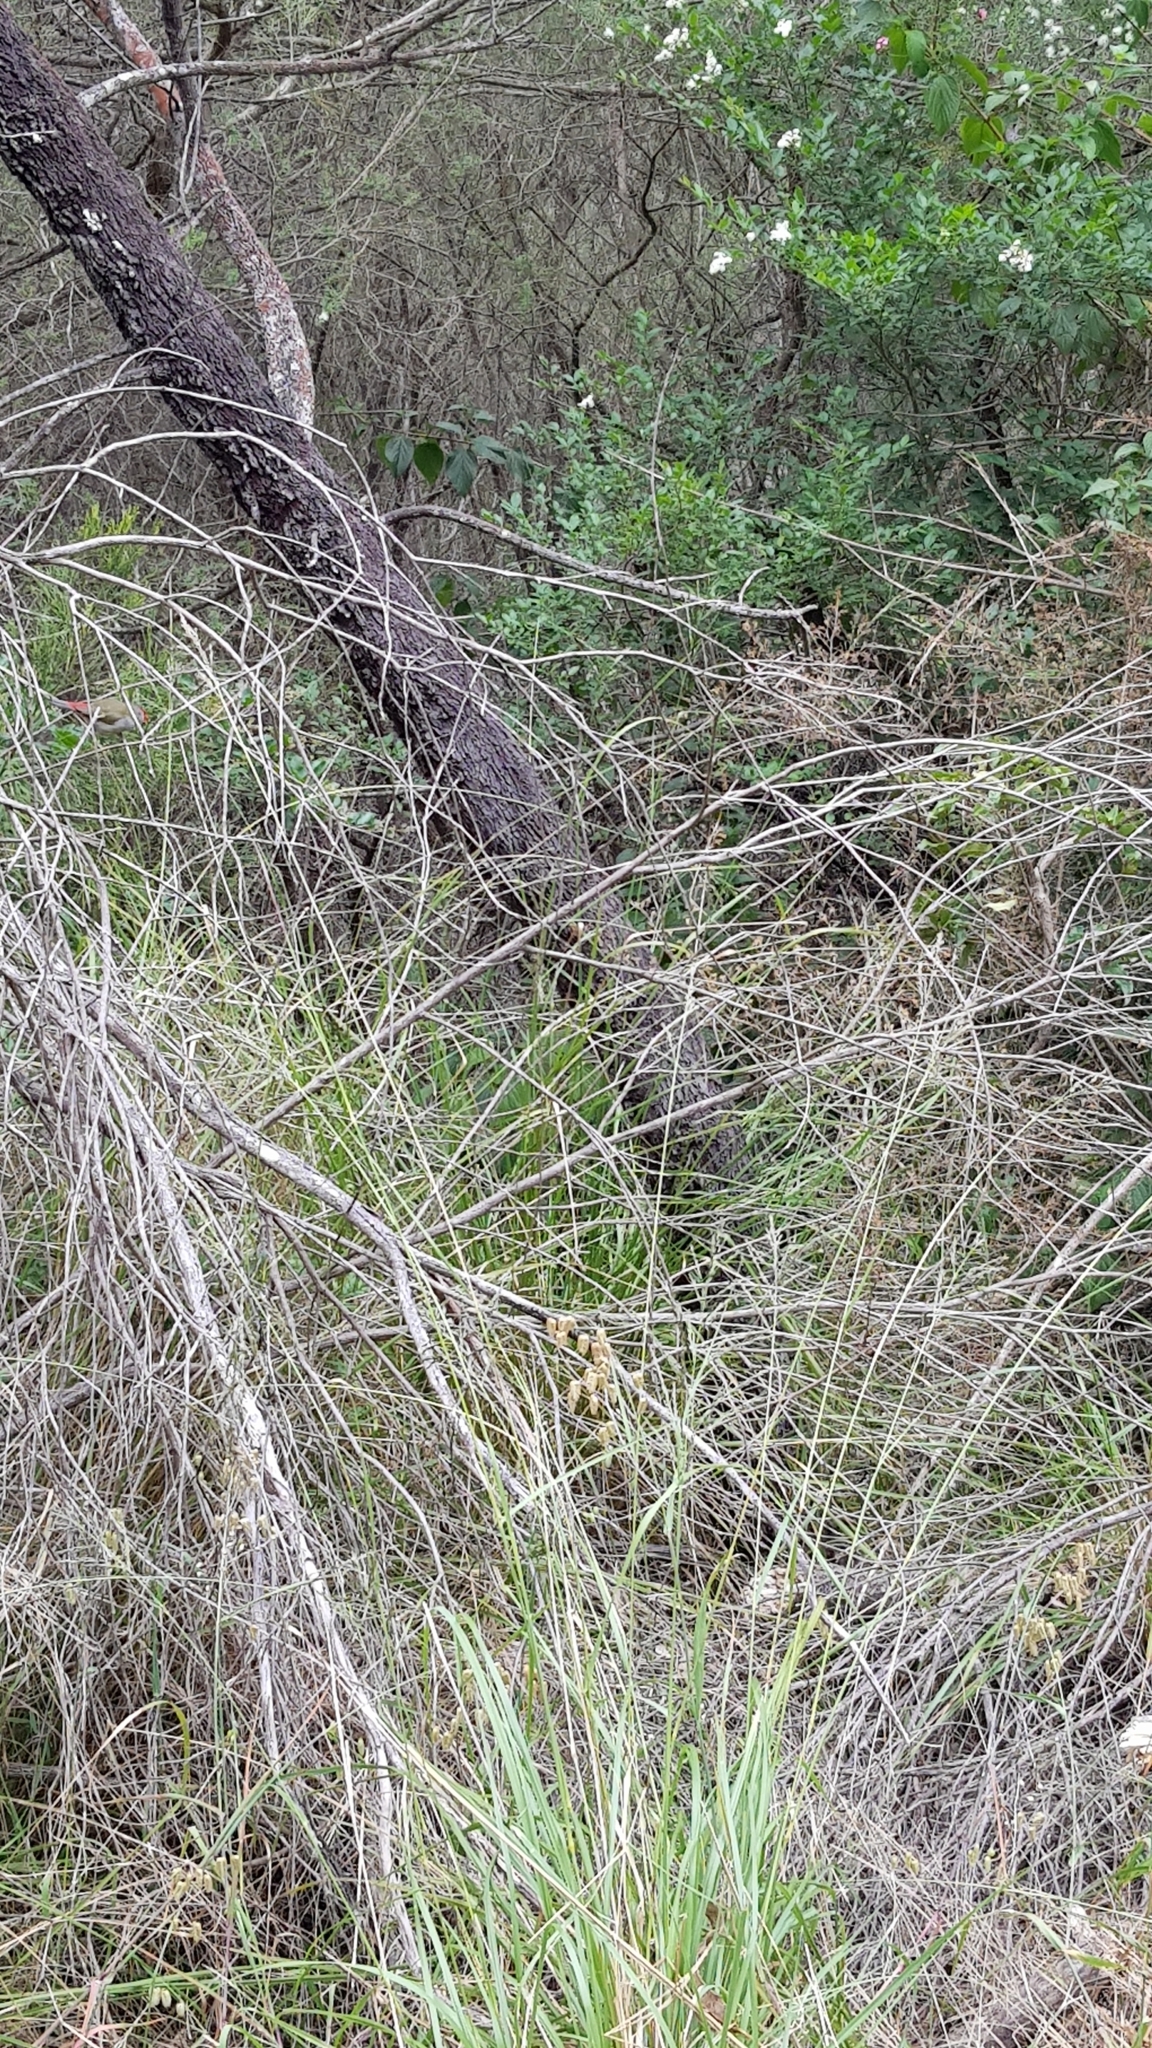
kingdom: Animalia
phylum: Chordata
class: Aves
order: Passeriformes
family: Estrildidae
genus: Neochmia
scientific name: Neochmia temporalis
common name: Red-browed finch
